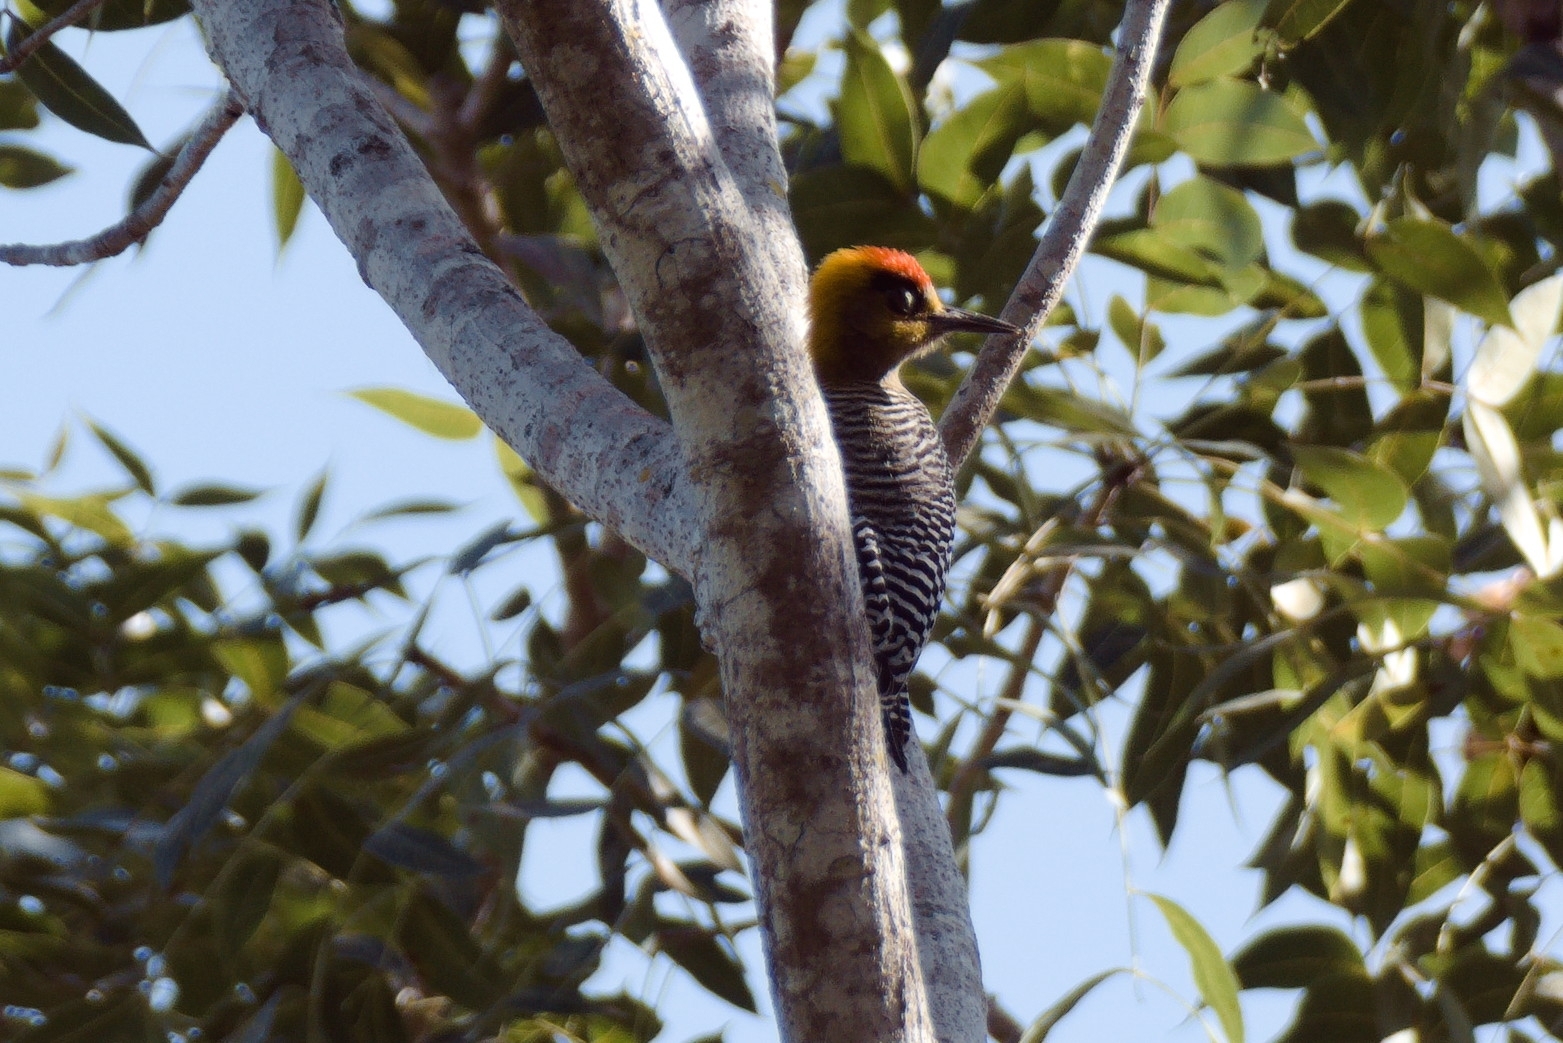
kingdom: Animalia
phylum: Chordata
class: Aves
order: Piciformes
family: Picidae
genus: Melanerpes
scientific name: Melanerpes chrysogenys
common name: Golden-cheeked woodpecker
